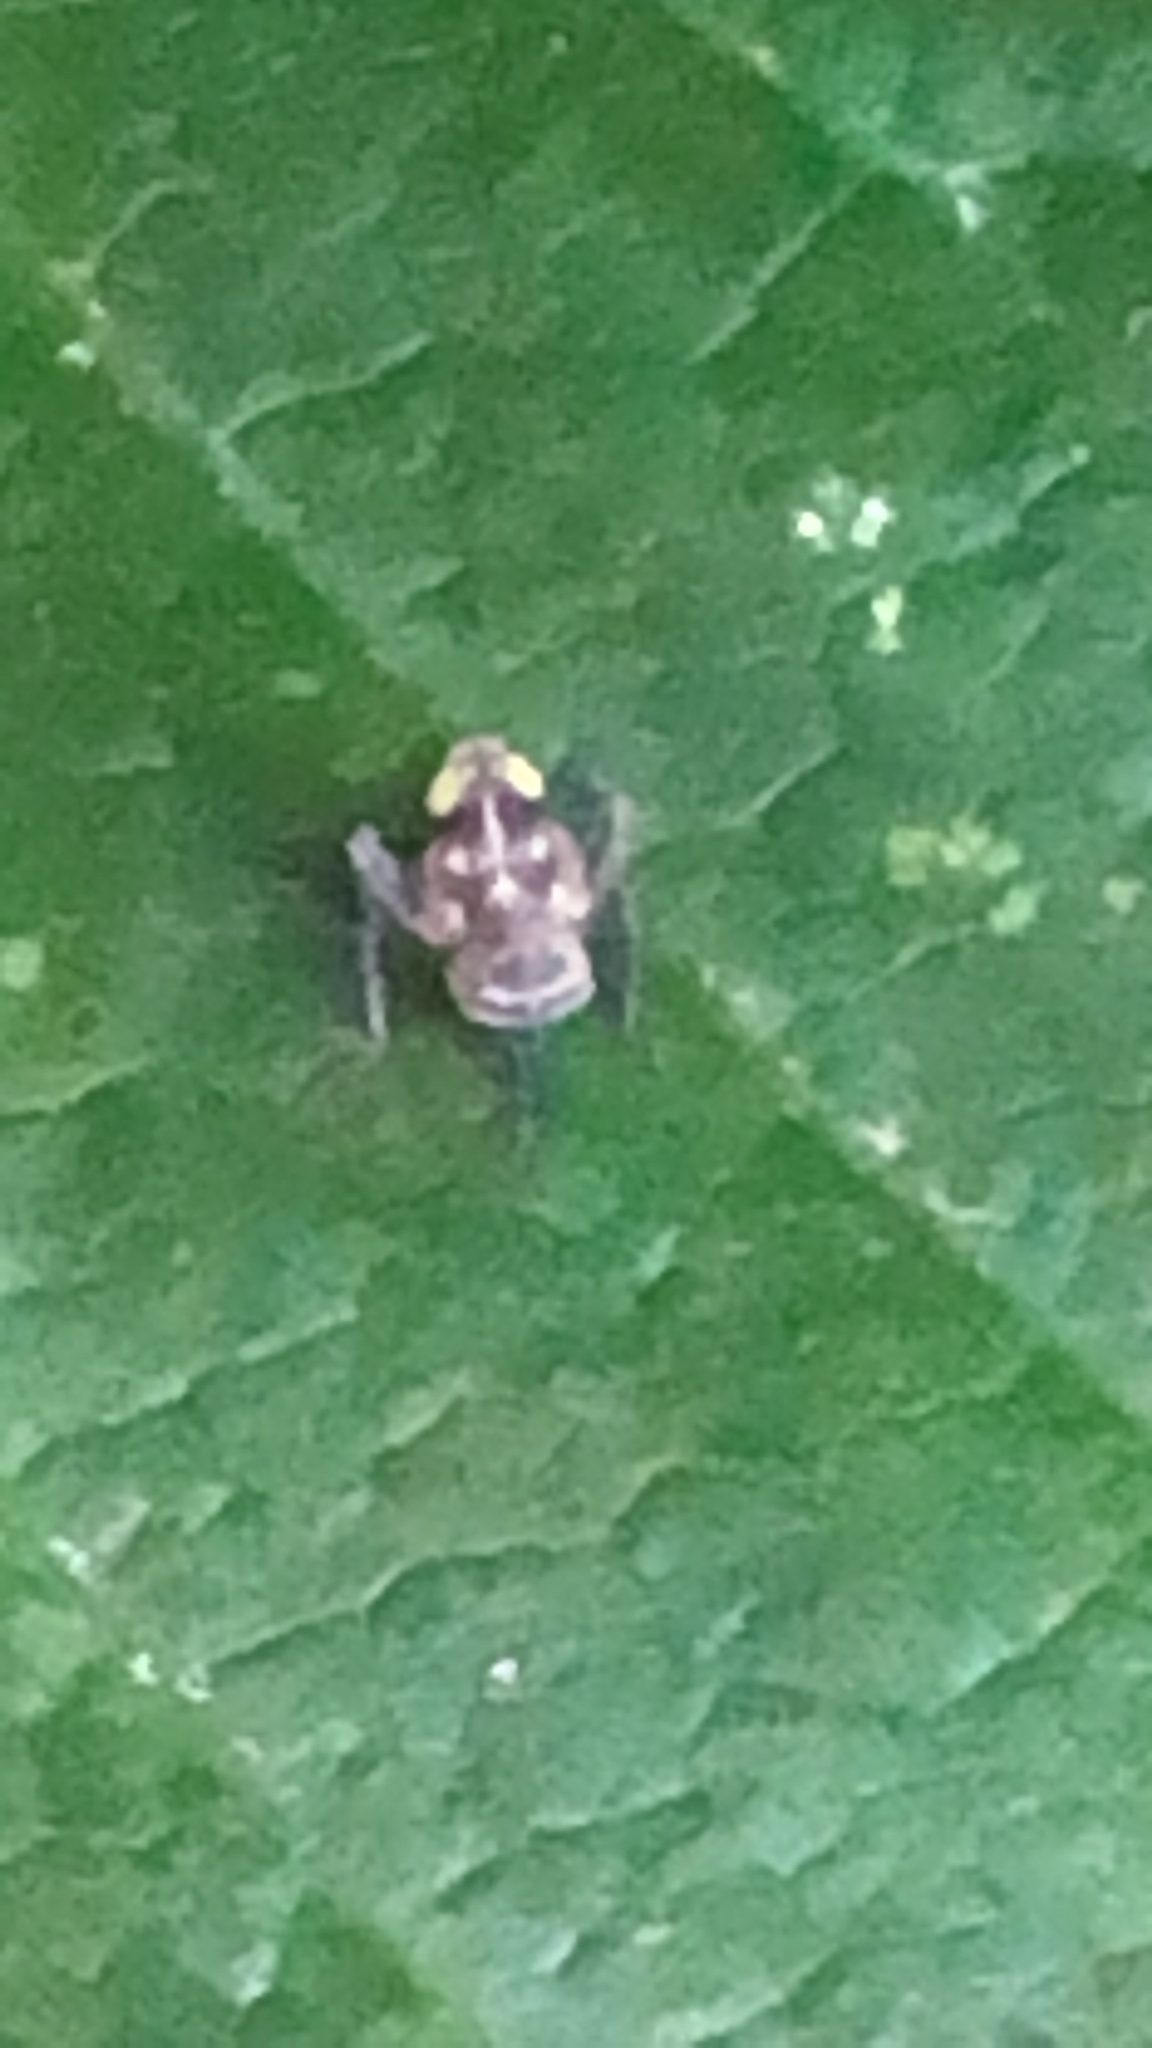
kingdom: Animalia
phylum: Arthropoda
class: Insecta
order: Hemiptera
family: Cicadellidae
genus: Jikradia
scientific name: Jikradia olitoria
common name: Coppery leafhopper
